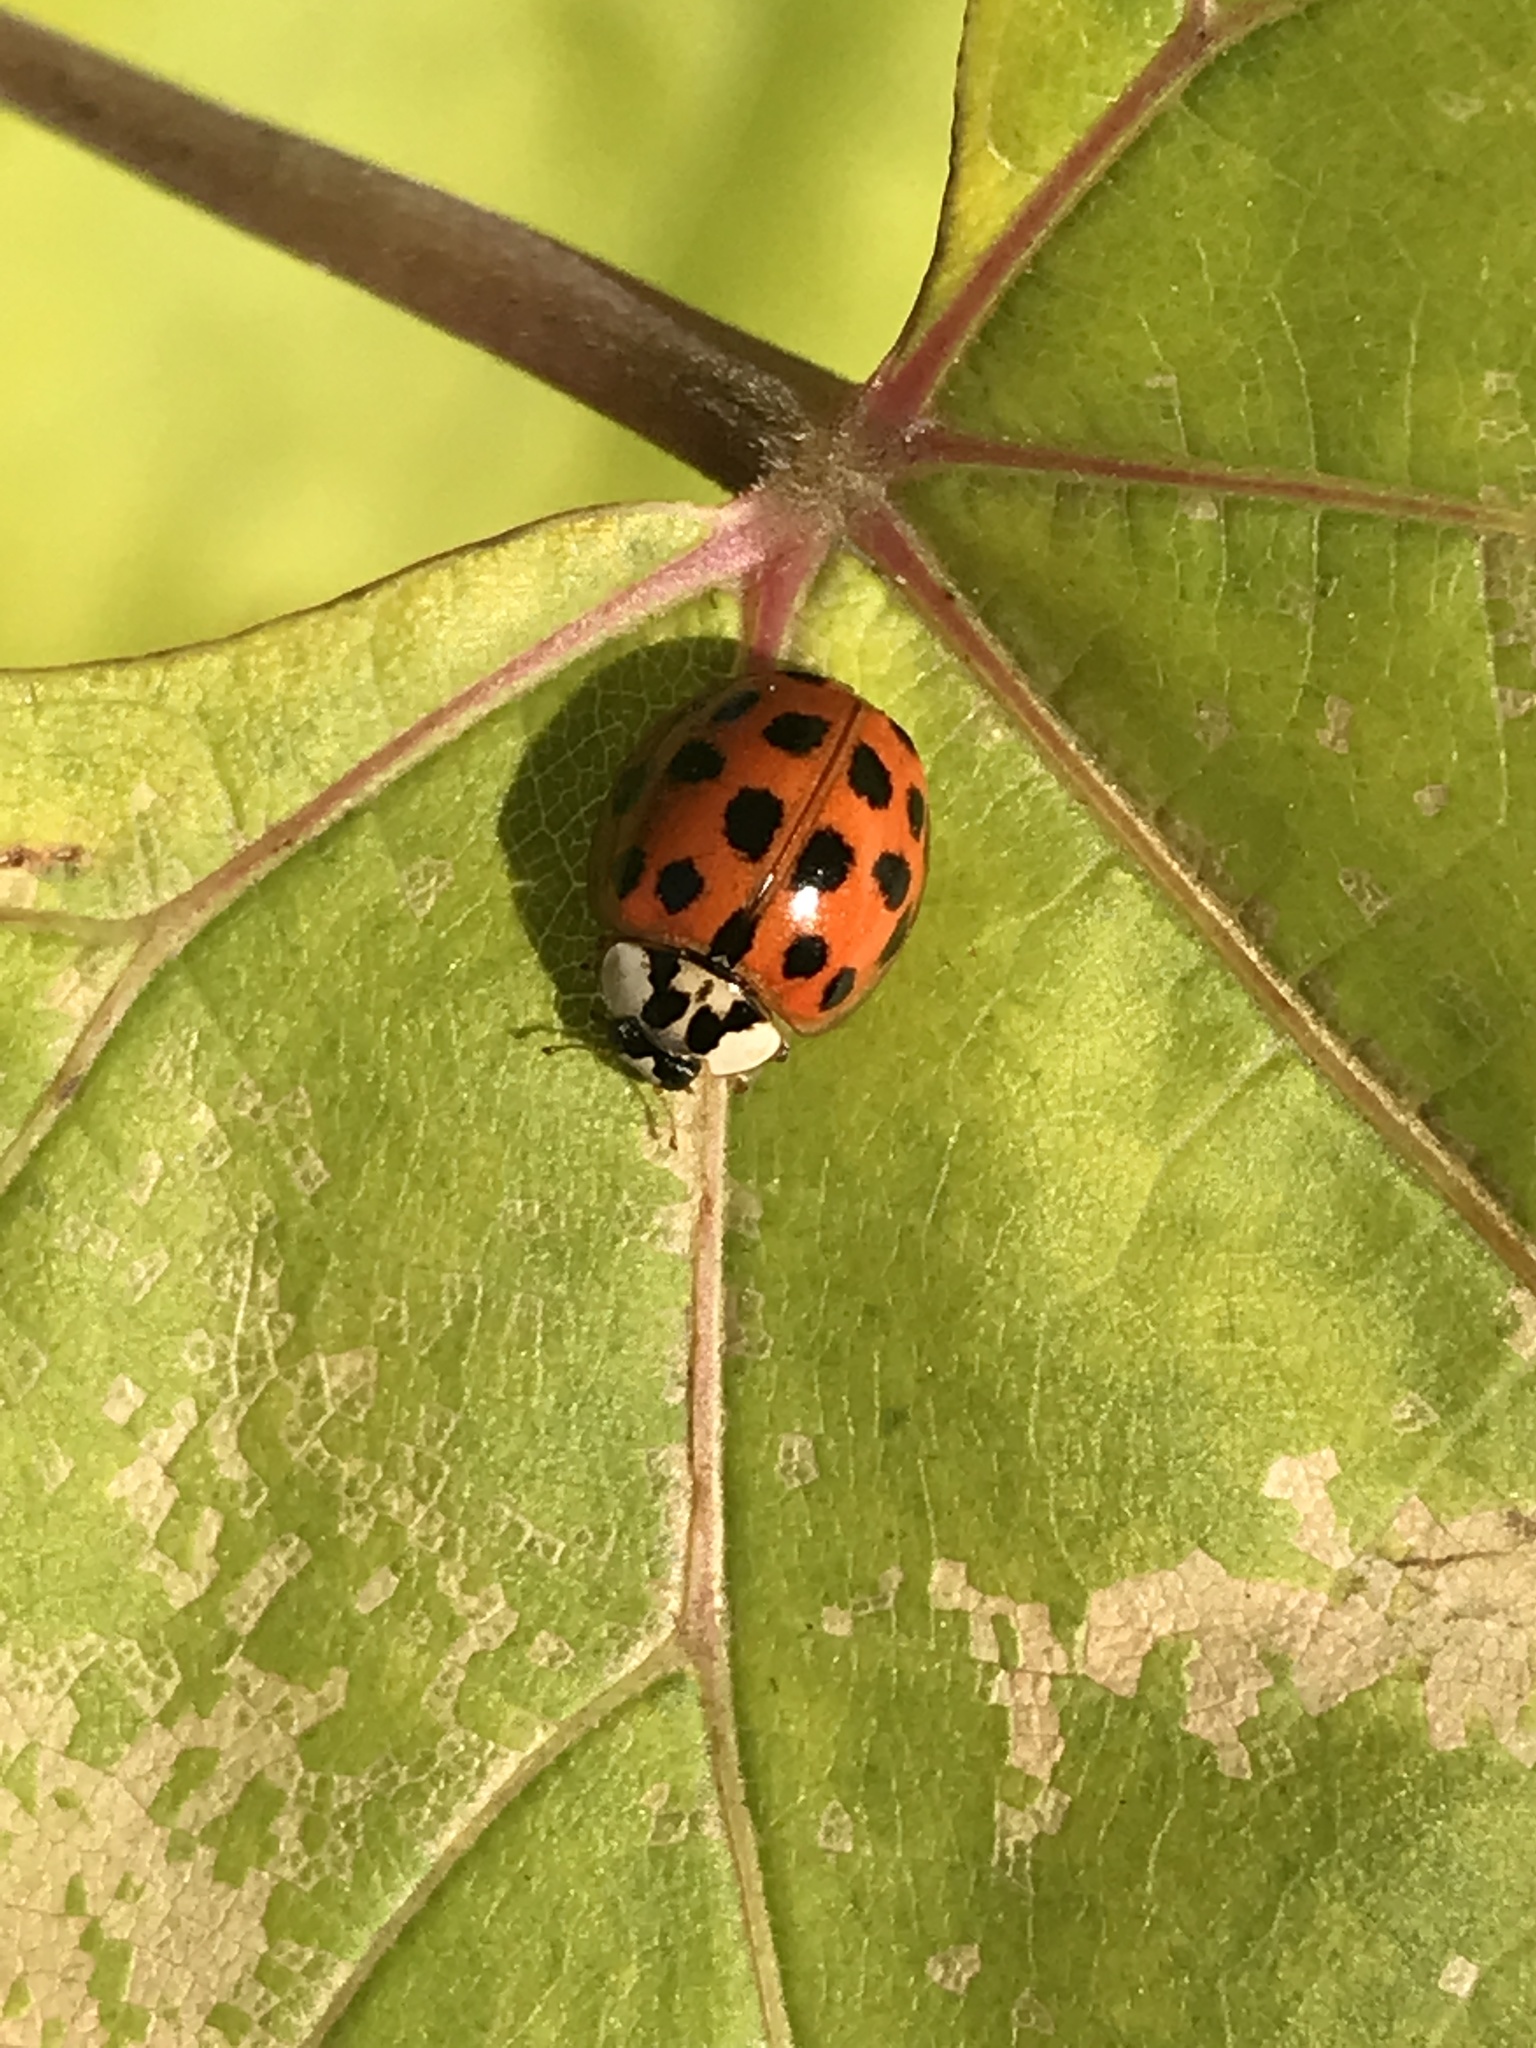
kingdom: Animalia
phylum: Arthropoda
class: Insecta
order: Coleoptera
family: Coccinellidae
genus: Harmonia
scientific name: Harmonia axyridis
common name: Harlequin ladybird
